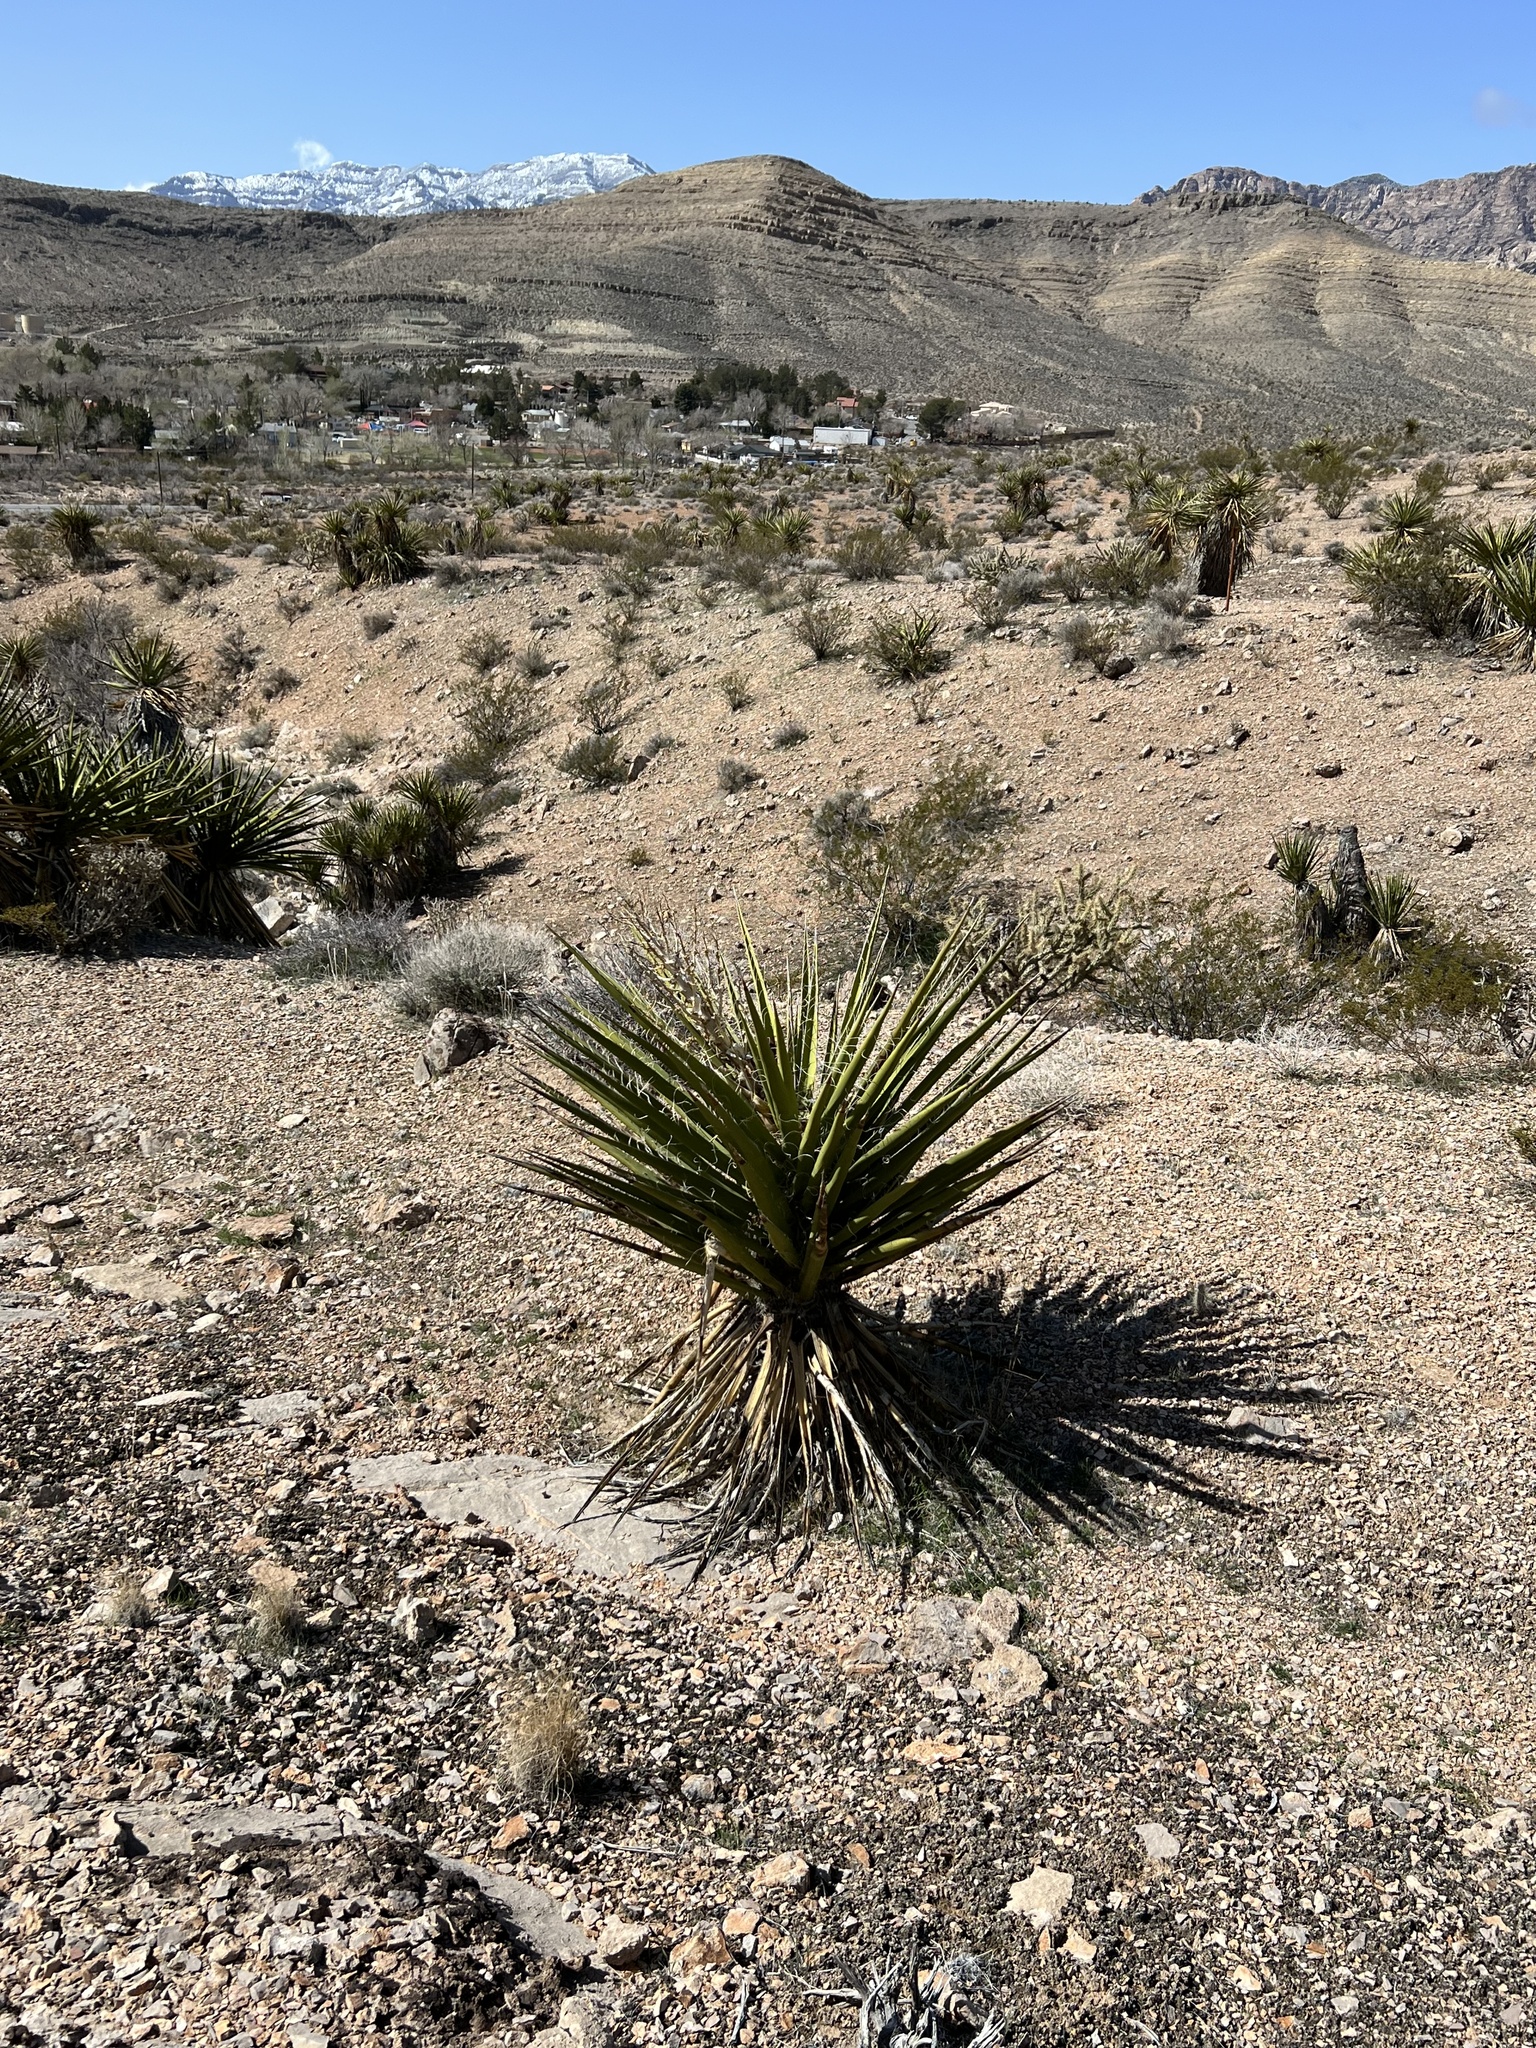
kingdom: Plantae
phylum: Tracheophyta
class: Liliopsida
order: Asparagales
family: Asparagaceae
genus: Yucca
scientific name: Yucca schidigera
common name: Mojave yucca
